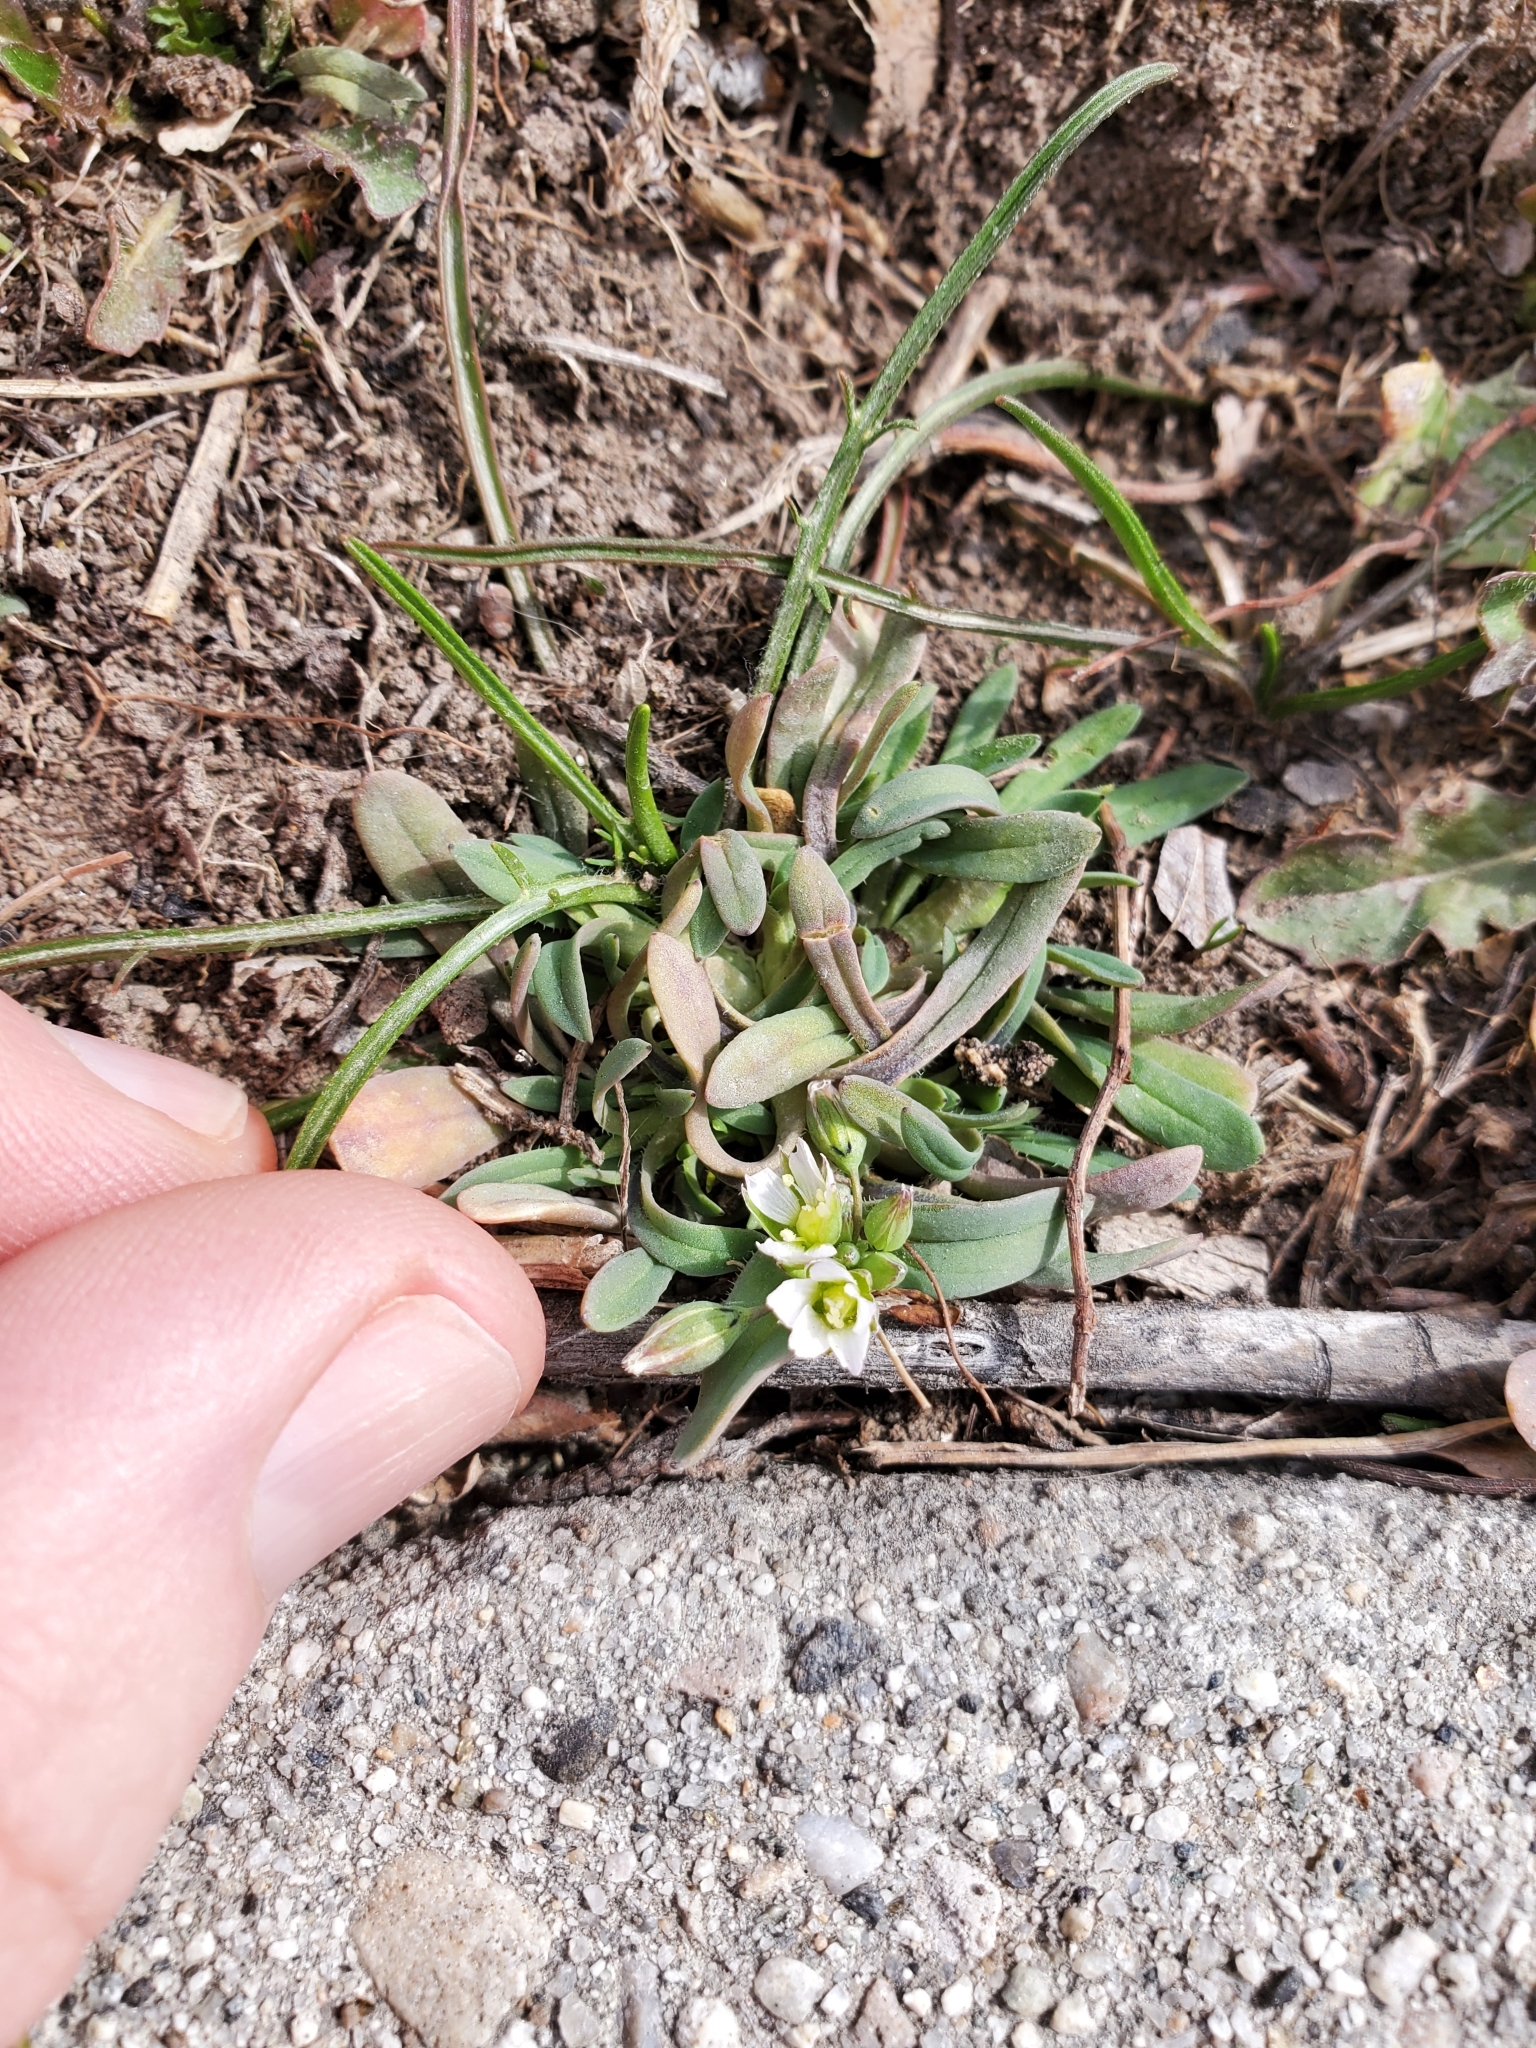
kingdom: Plantae
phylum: Tracheophyta
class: Magnoliopsida
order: Caryophyllales
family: Caryophyllaceae
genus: Holosteum
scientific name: Holosteum umbellatum
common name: Jagged chickweed
